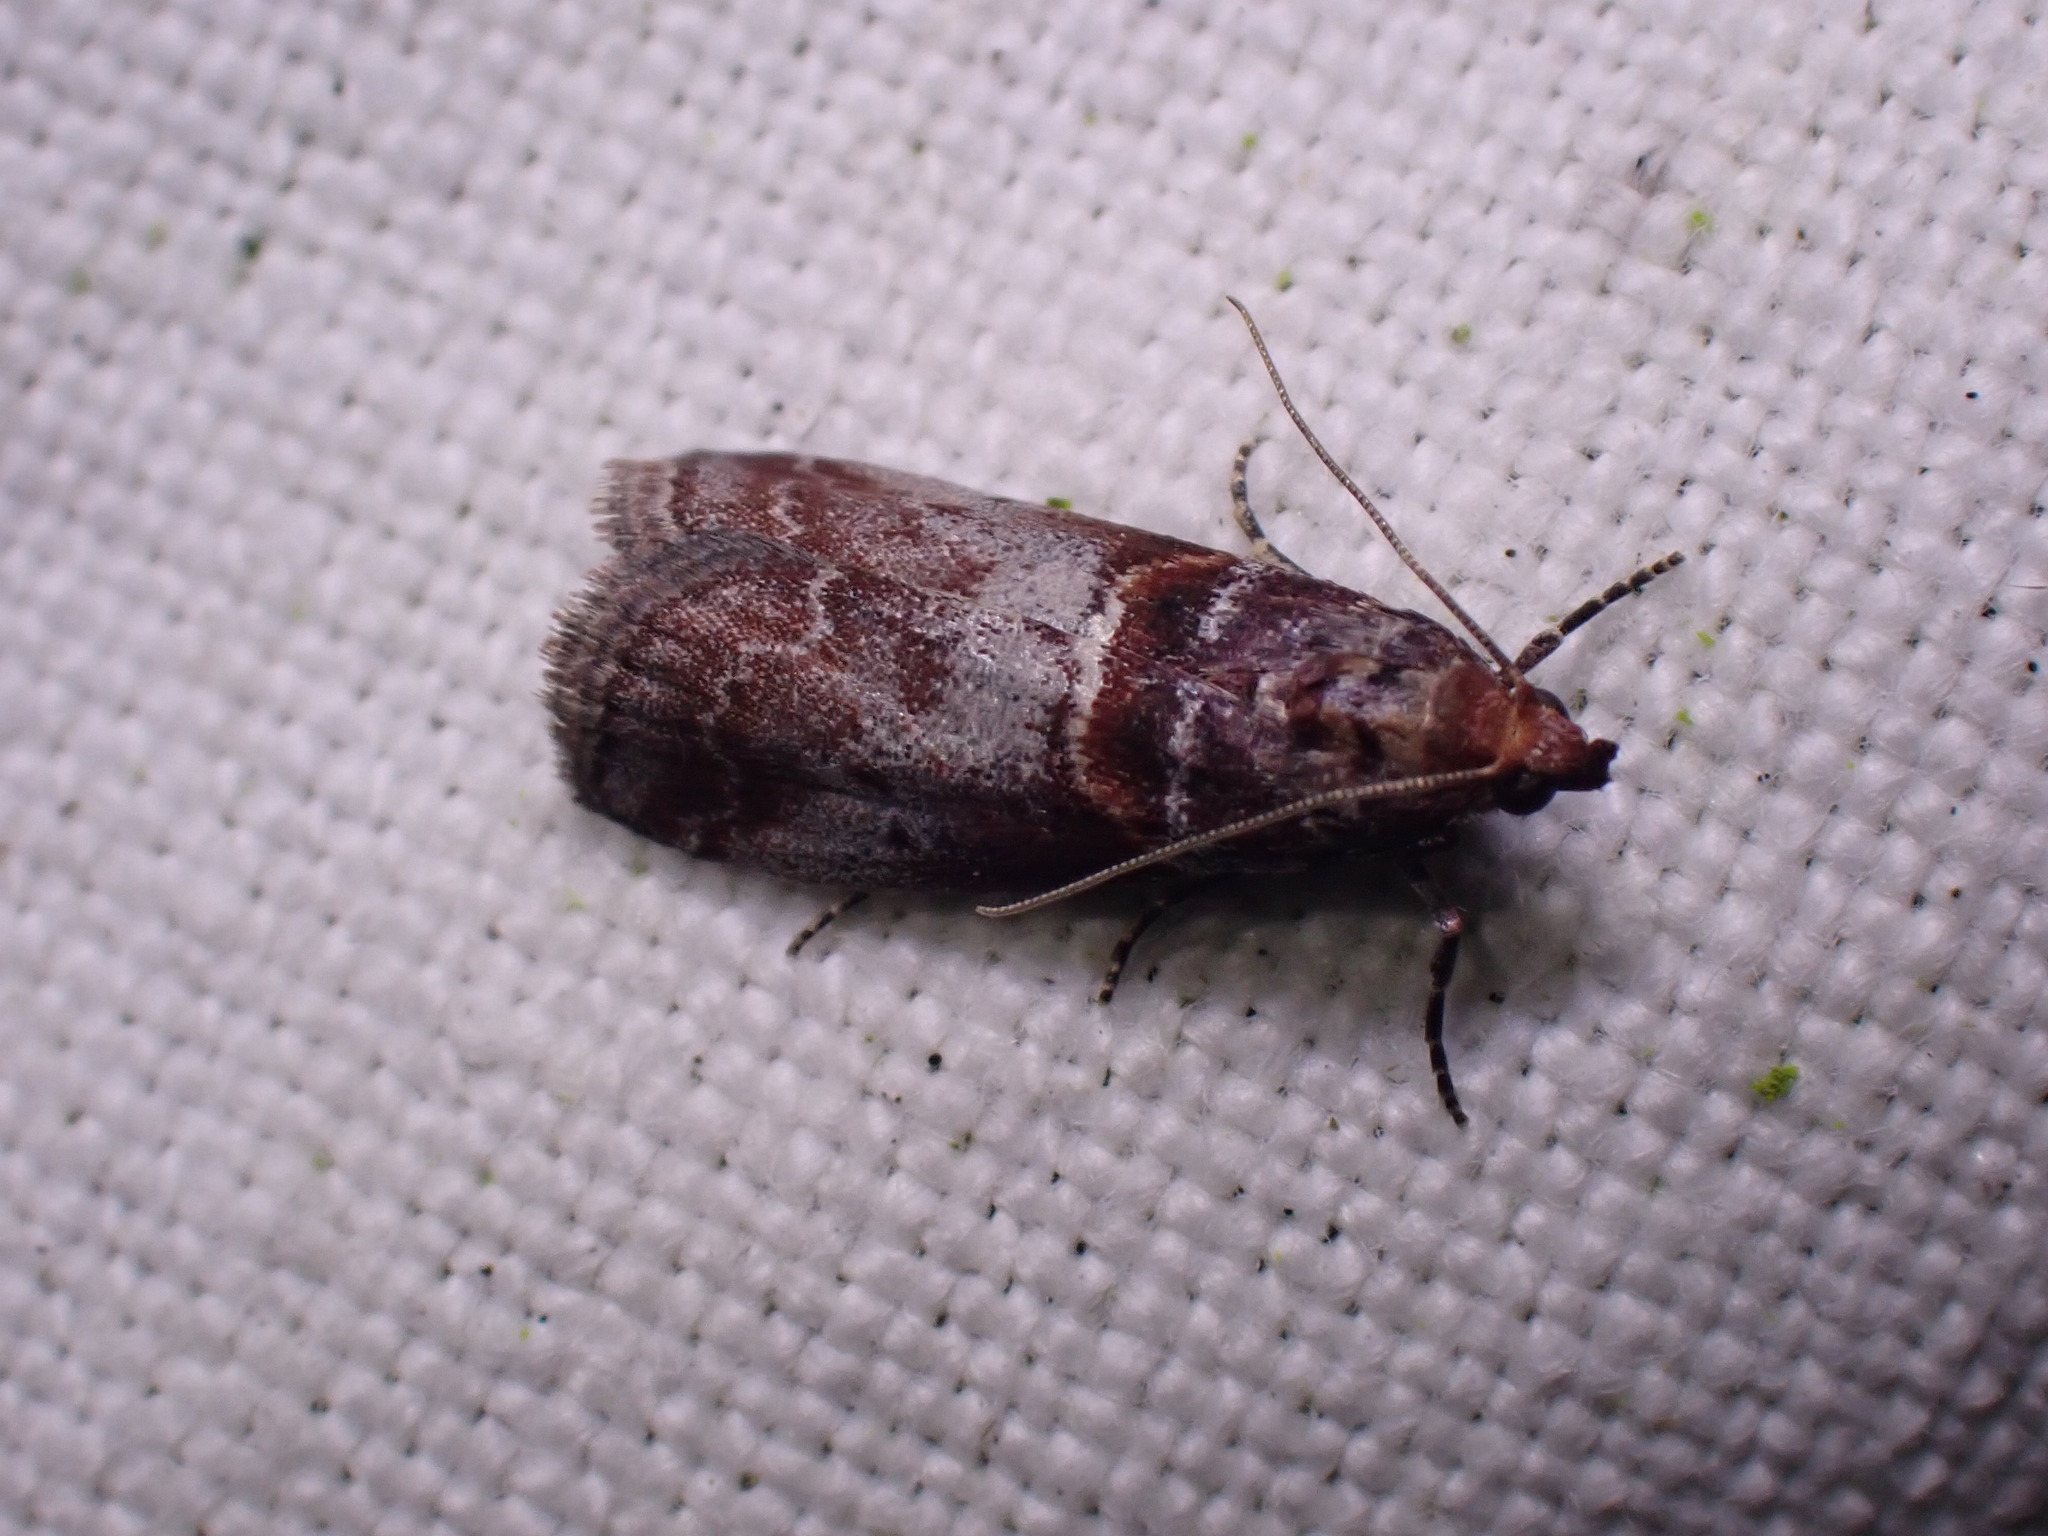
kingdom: Animalia
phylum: Arthropoda
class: Insecta
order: Lepidoptera
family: Pyralidae
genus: Acrobasis
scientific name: Acrobasis advenella
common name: Grey knot-horn
